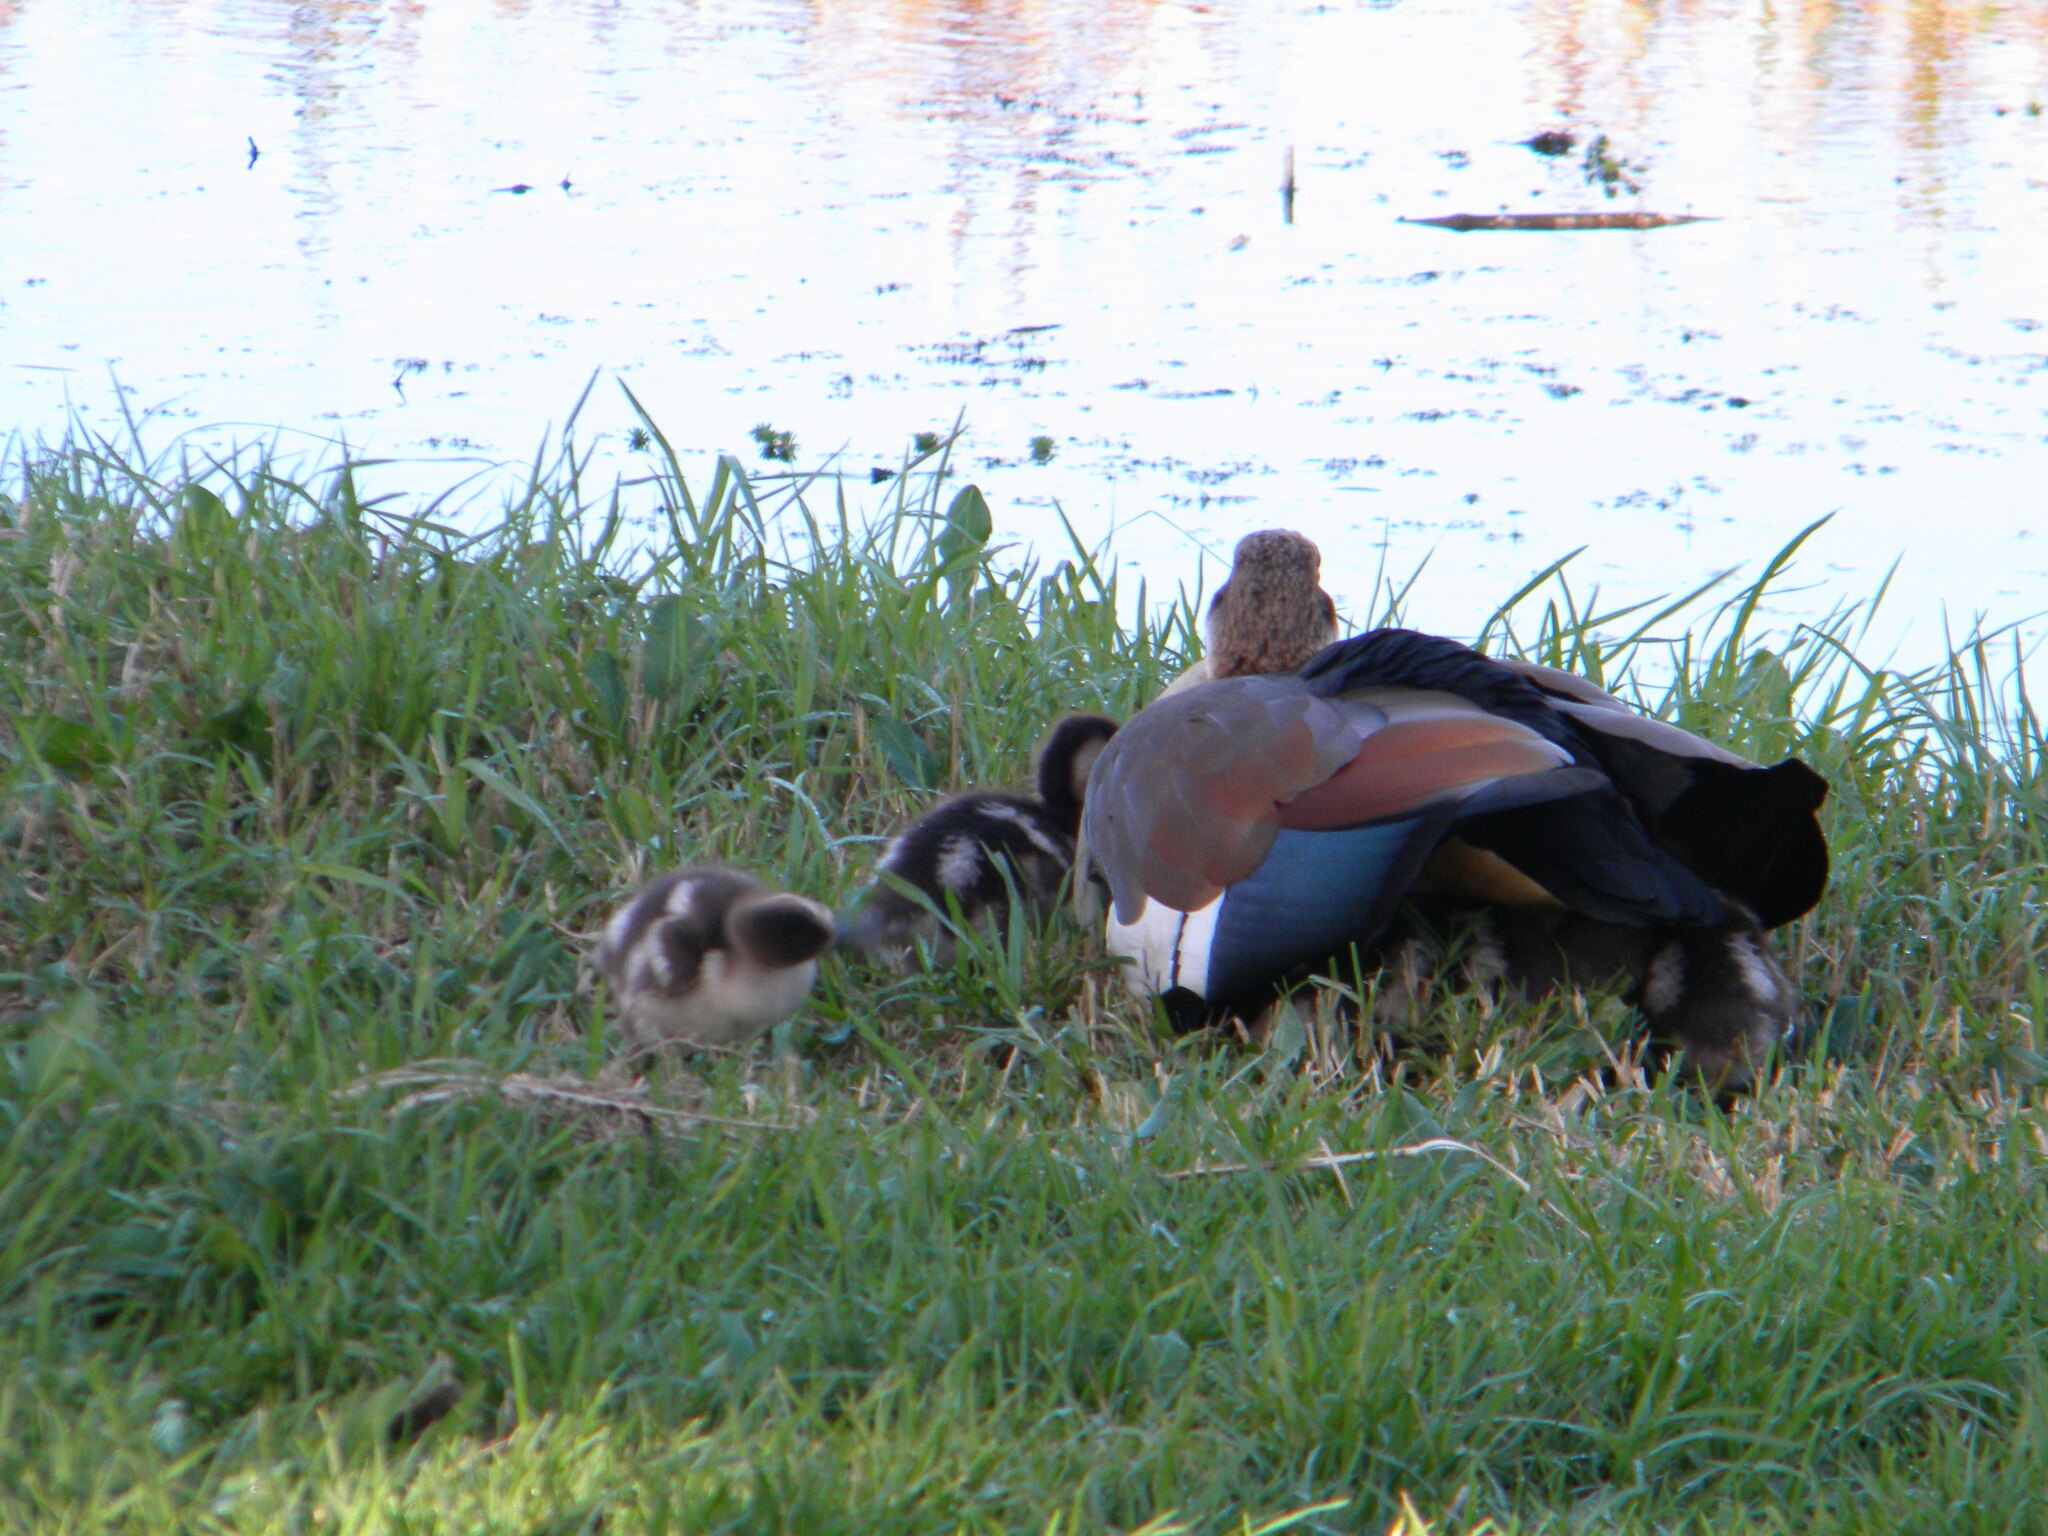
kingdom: Animalia
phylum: Chordata
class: Aves
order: Anseriformes
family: Anatidae
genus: Alopochen
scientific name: Alopochen aegyptiaca
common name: Egyptian goose
